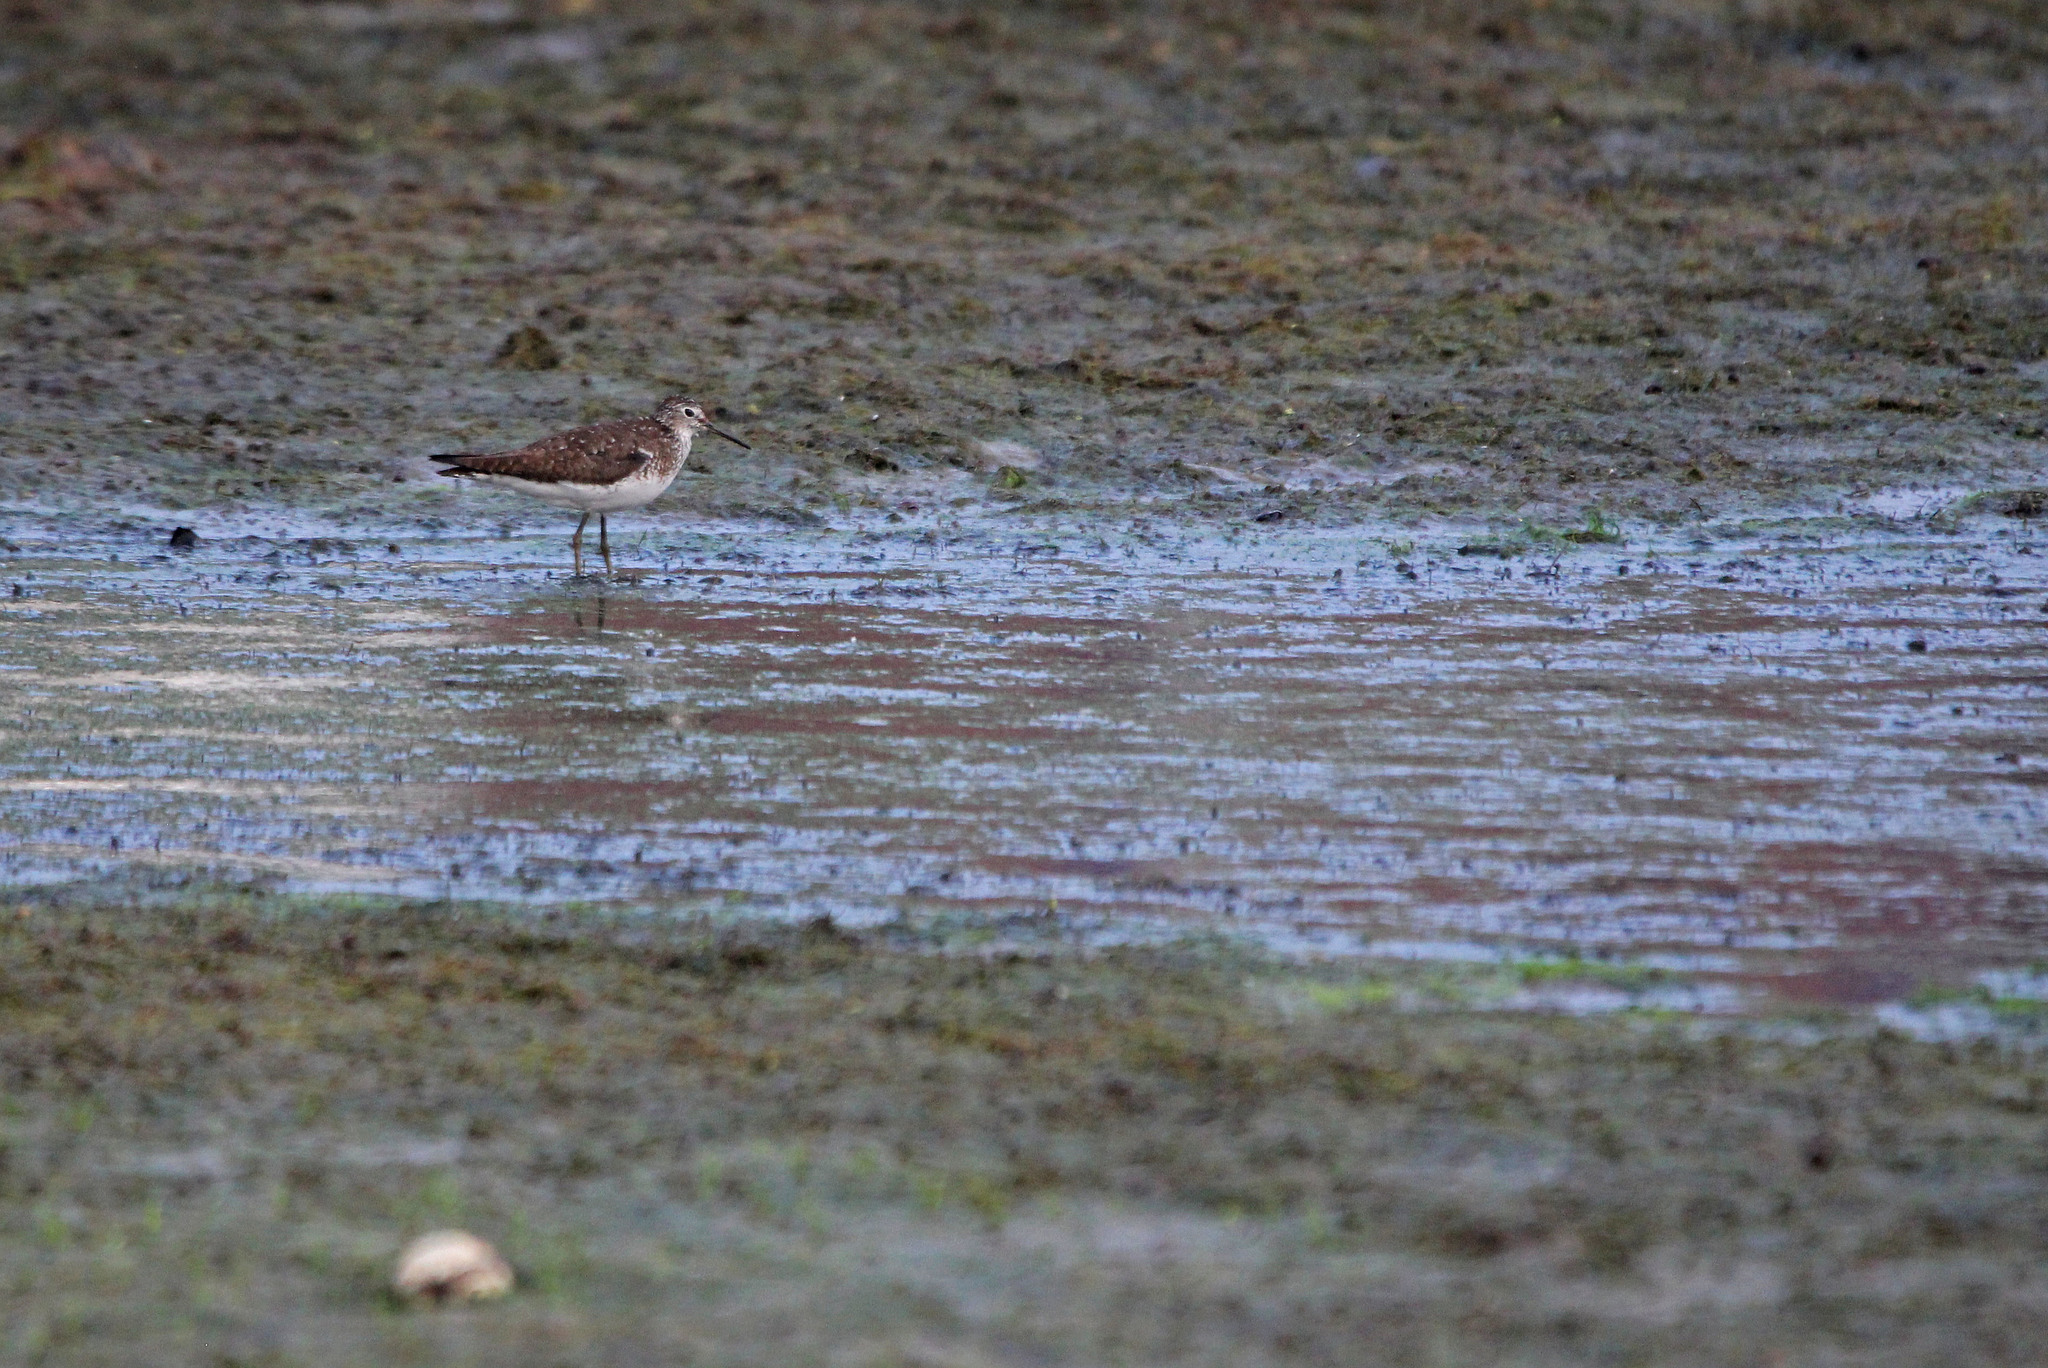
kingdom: Animalia
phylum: Chordata
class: Aves
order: Charadriiformes
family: Scolopacidae
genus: Tringa
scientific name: Tringa solitaria
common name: Solitary sandpiper
